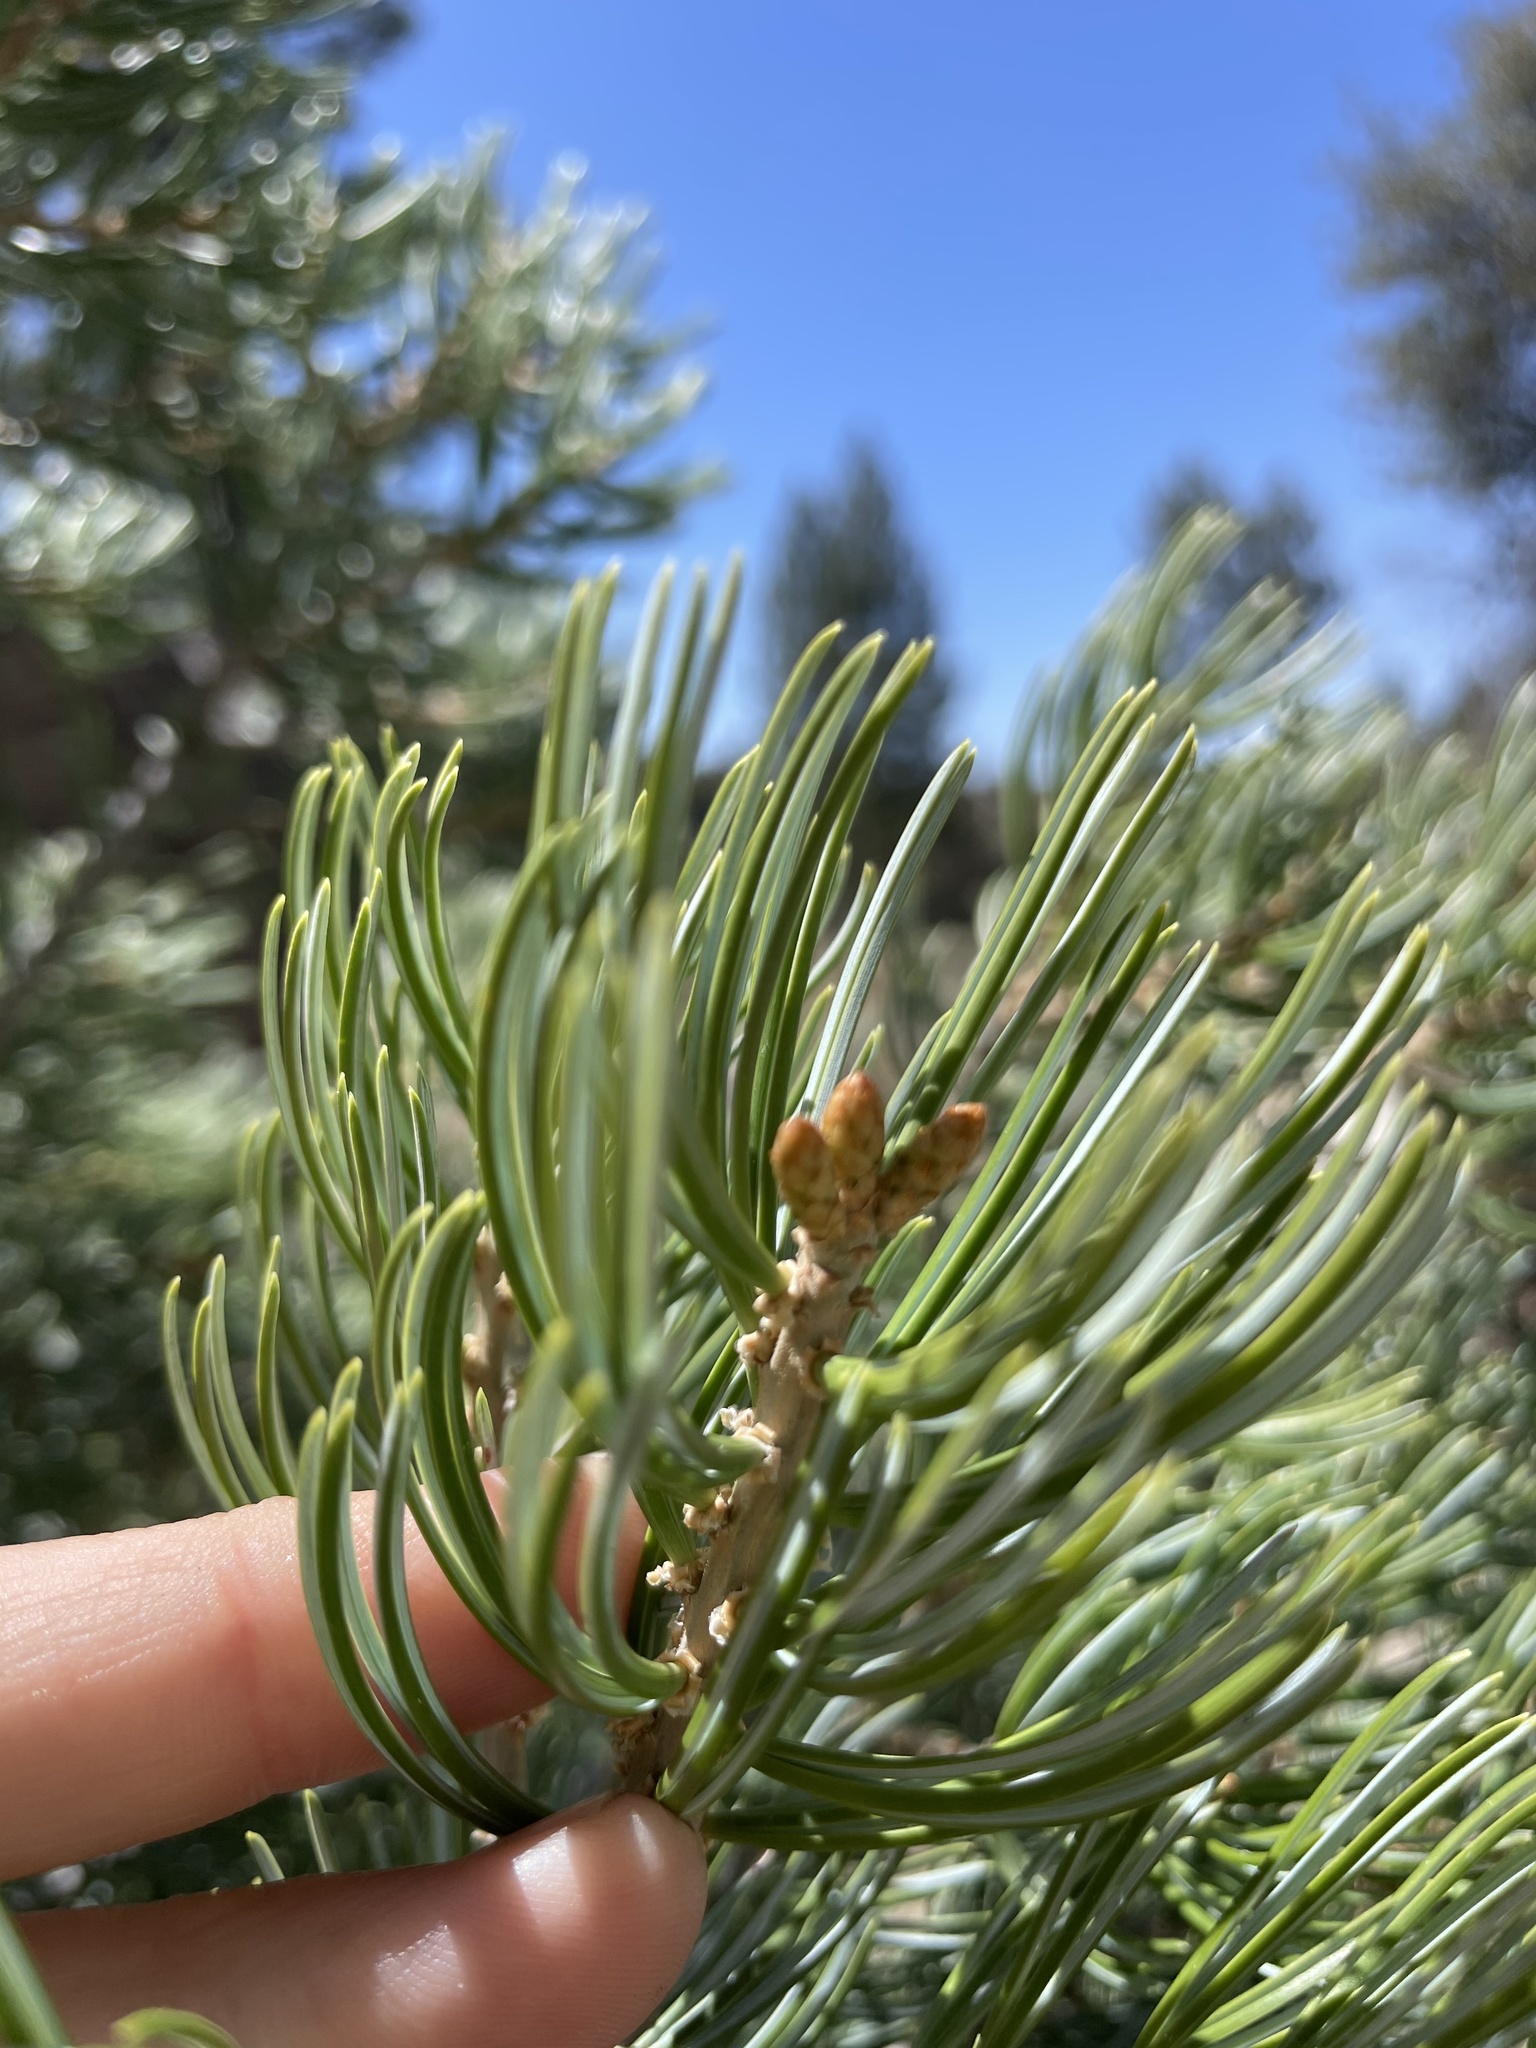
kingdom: Plantae
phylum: Tracheophyta
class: Pinopsida
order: Pinales
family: Pinaceae
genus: Pinus
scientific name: Pinus quadrifolia
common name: Parry pinyon
